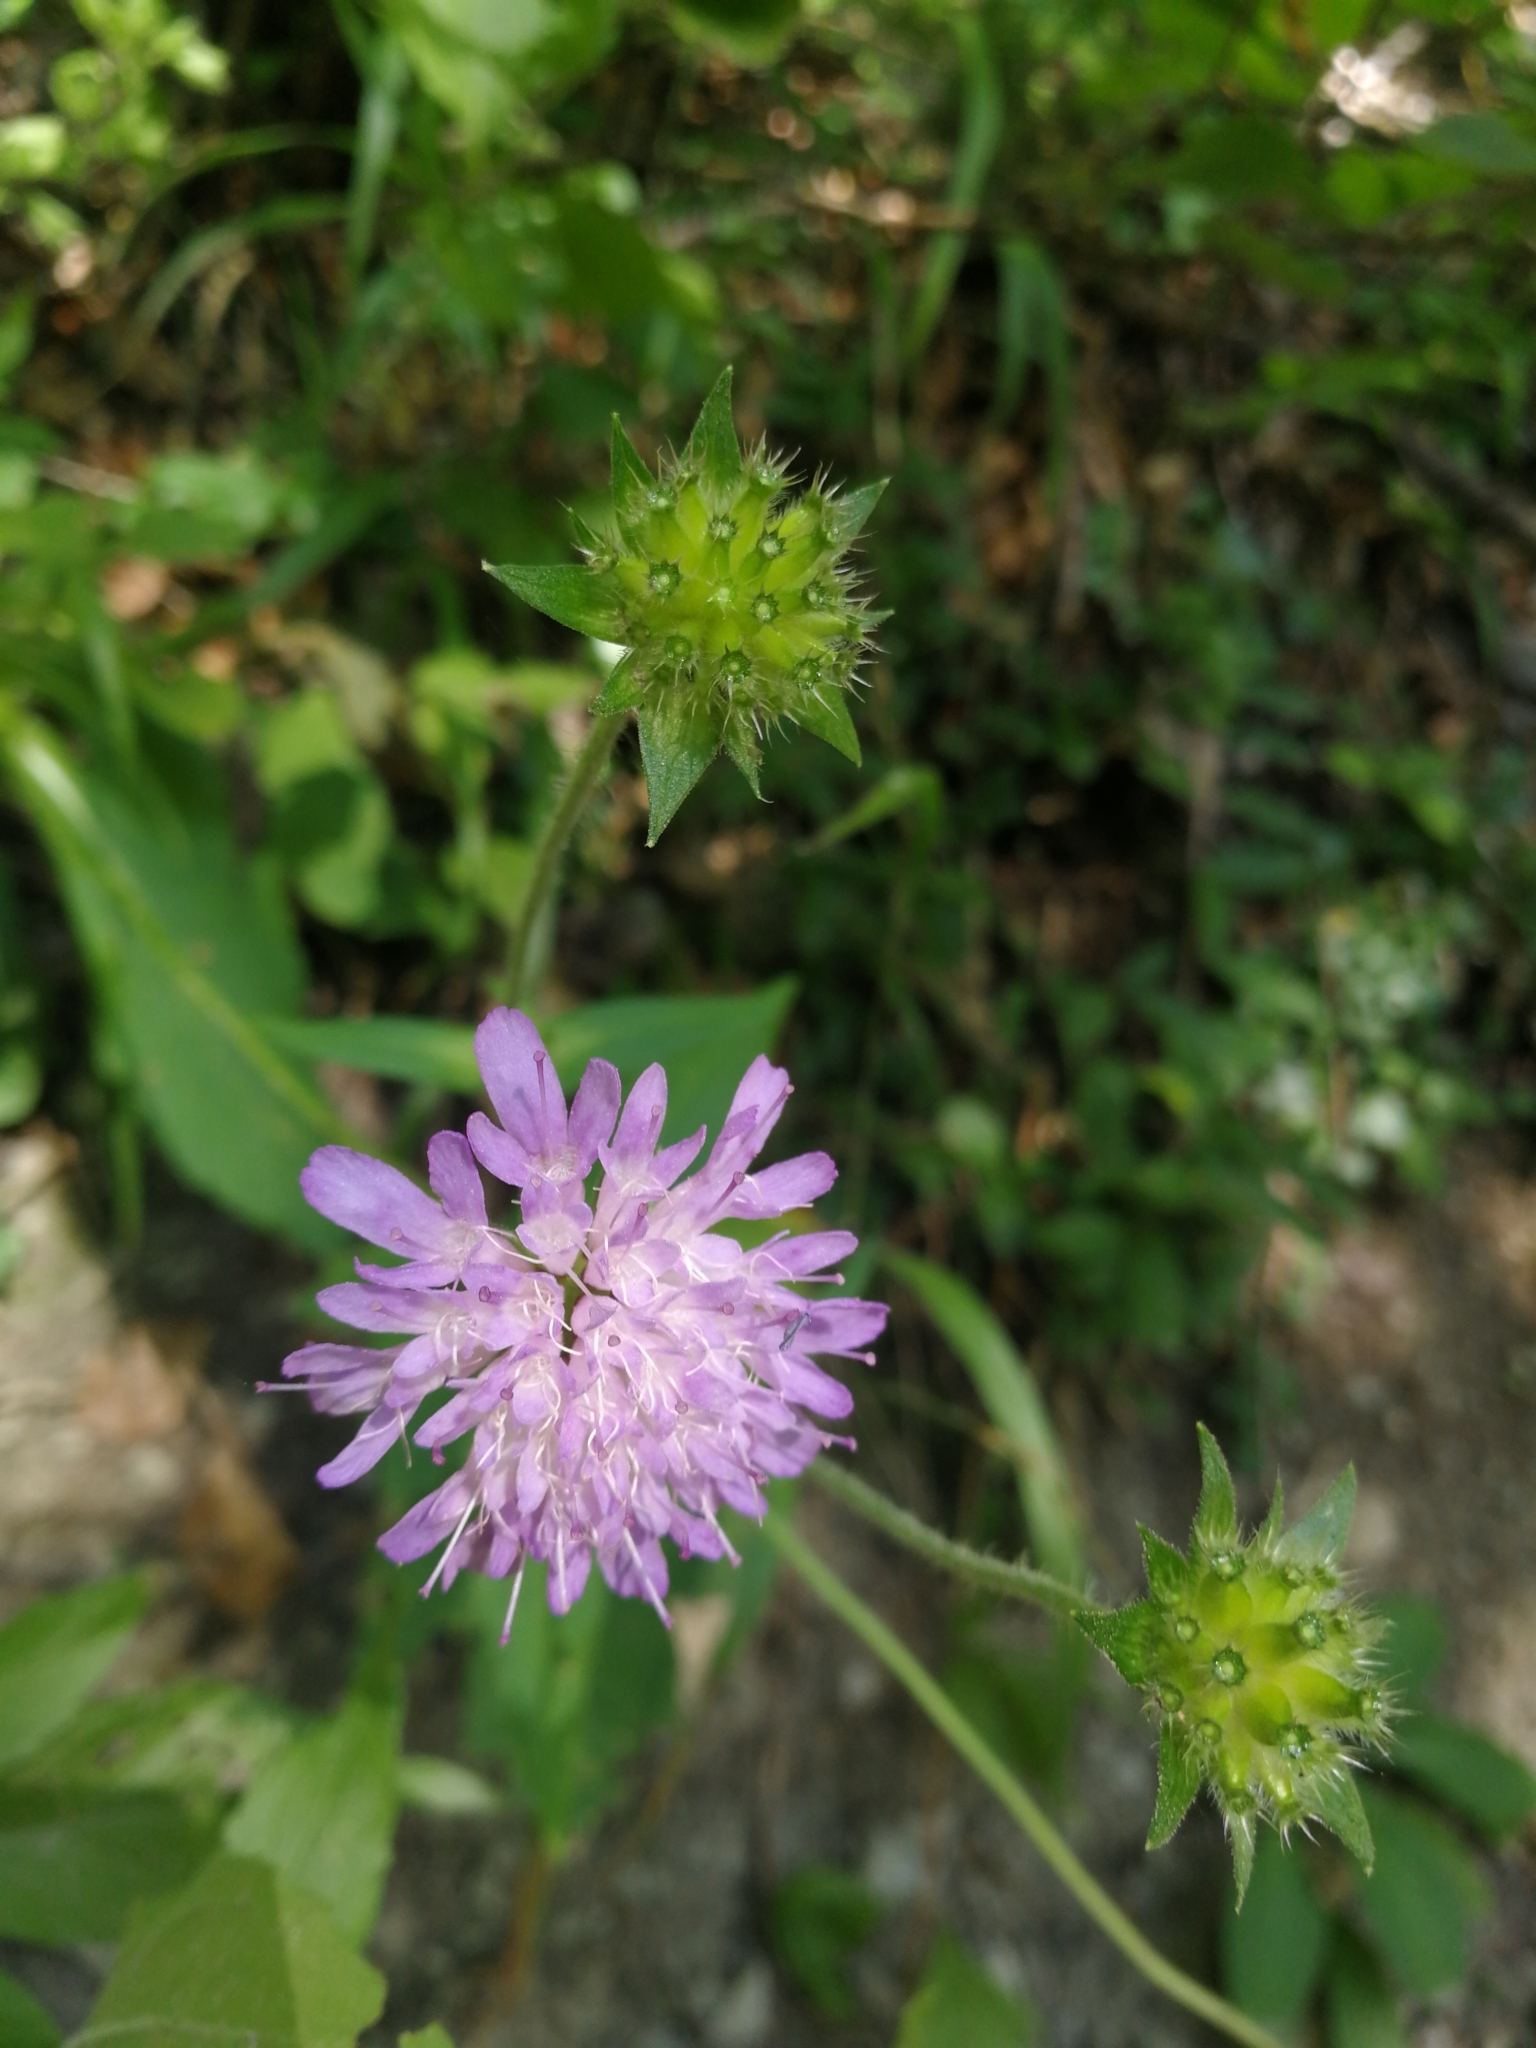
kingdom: Plantae
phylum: Tracheophyta
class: Magnoliopsida
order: Dipsacales
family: Caprifoliaceae
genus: Knautia
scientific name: Knautia dipsacifolia
